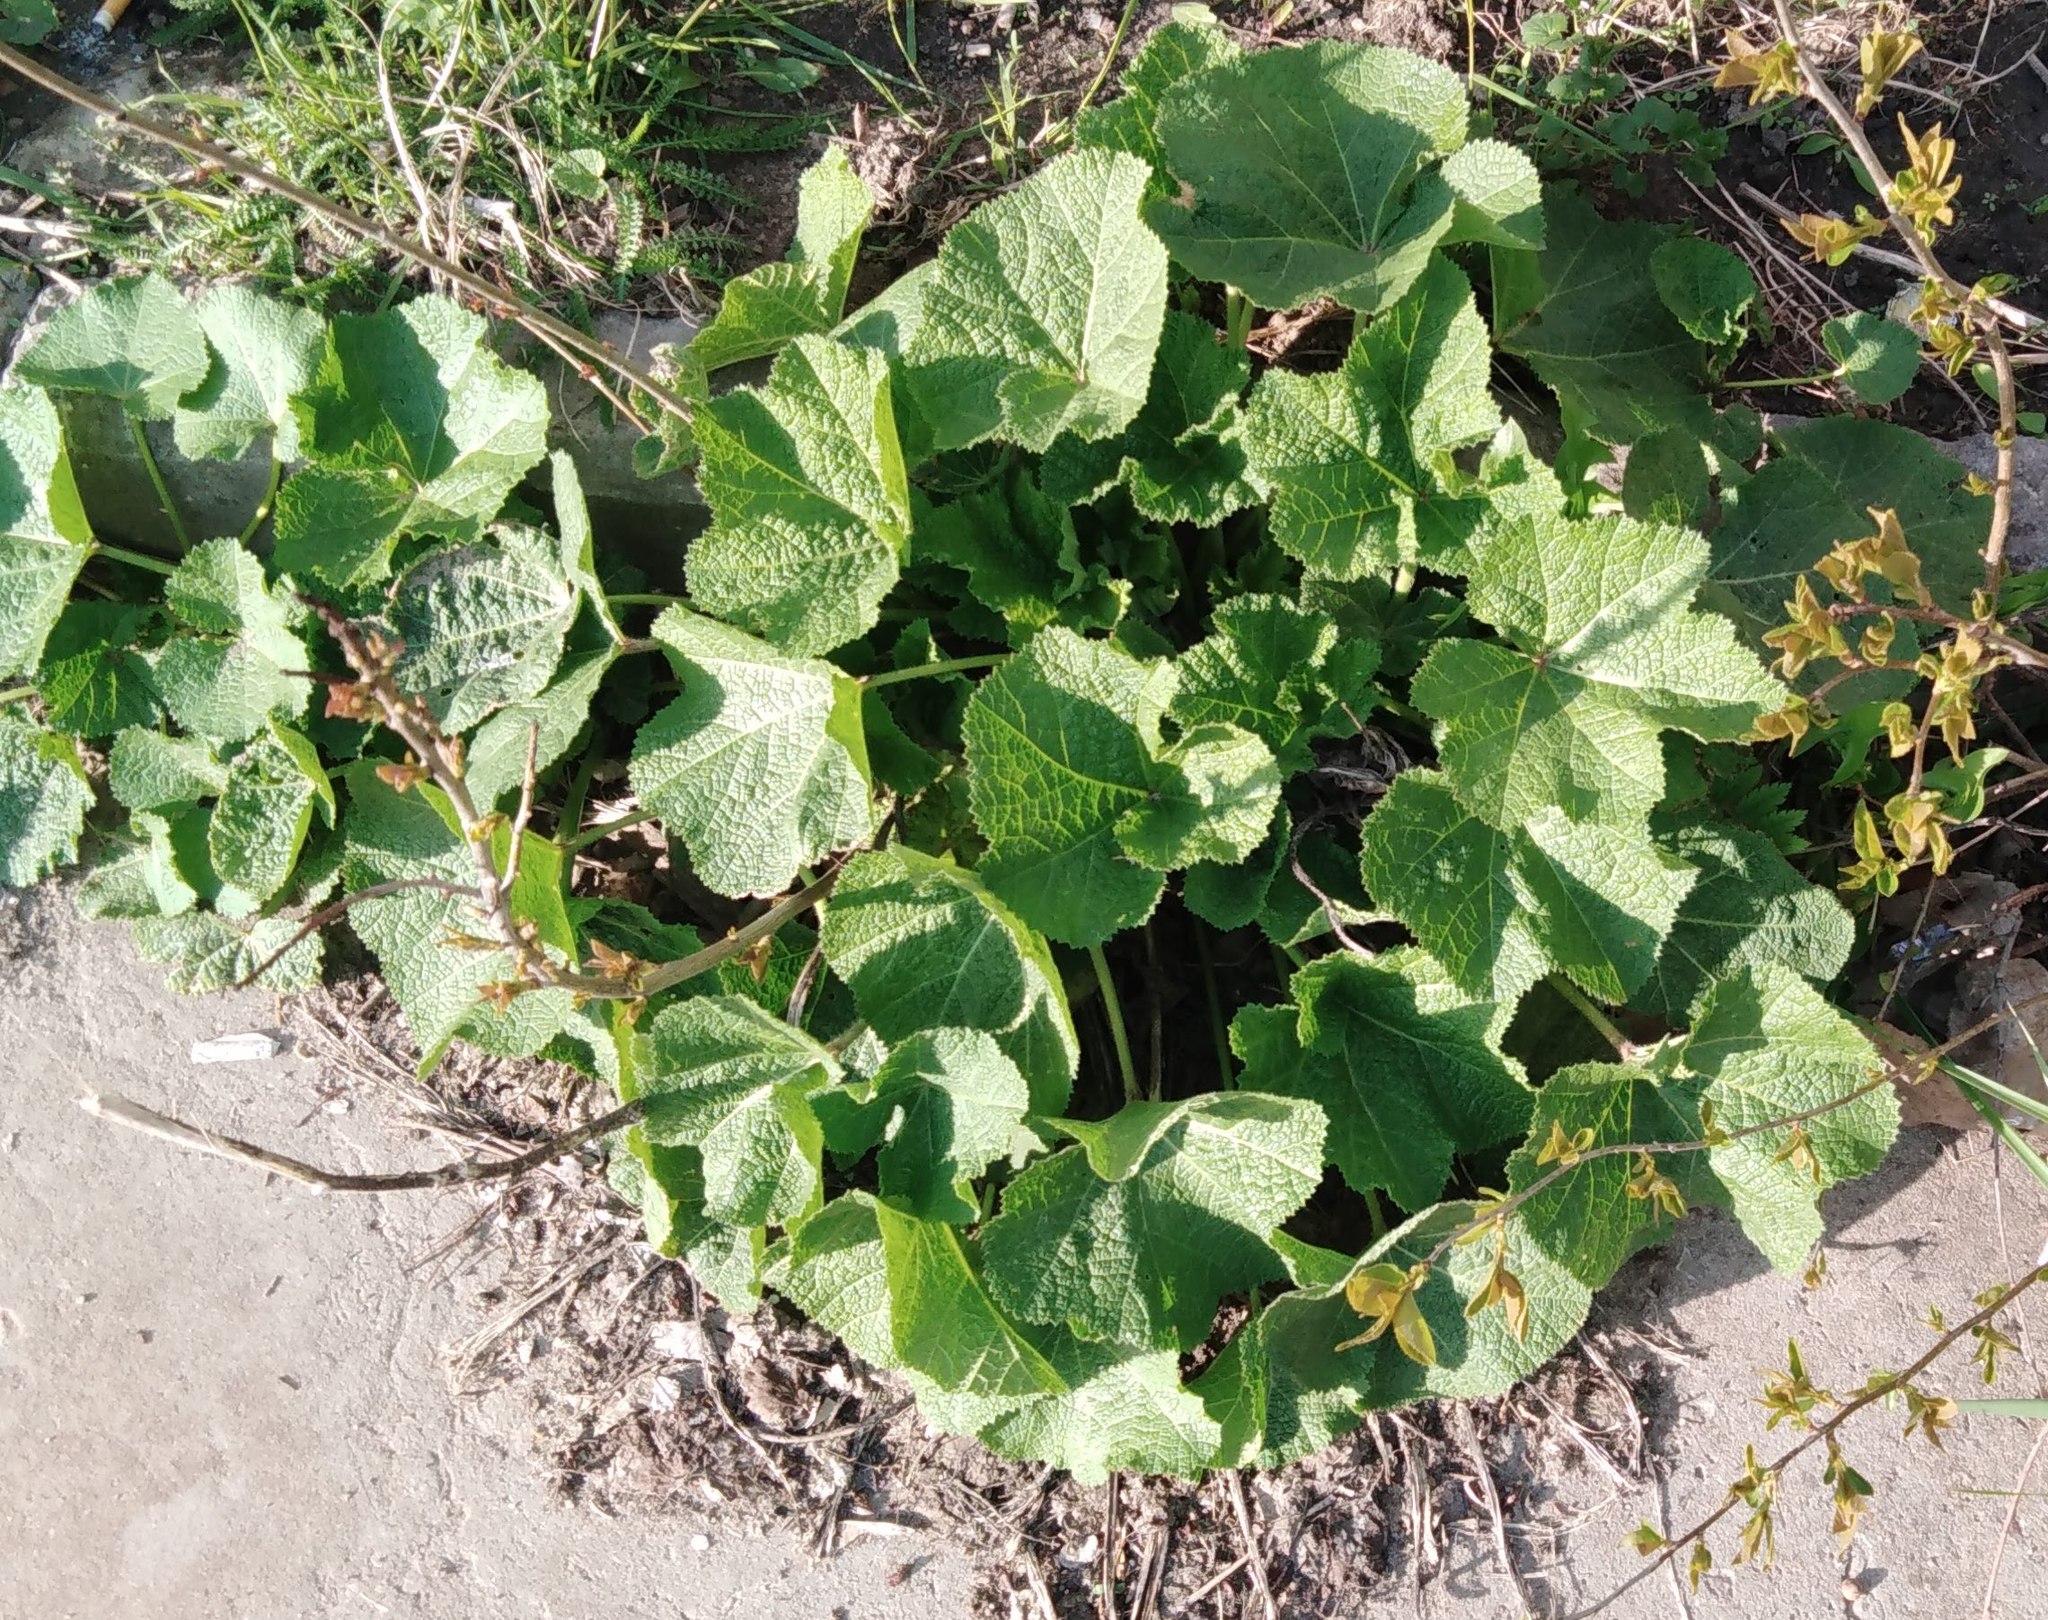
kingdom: Plantae
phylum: Tracheophyta
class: Magnoliopsida
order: Malvales
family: Malvaceae
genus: Alcea
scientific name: Alcea rosea
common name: Hollyhock
